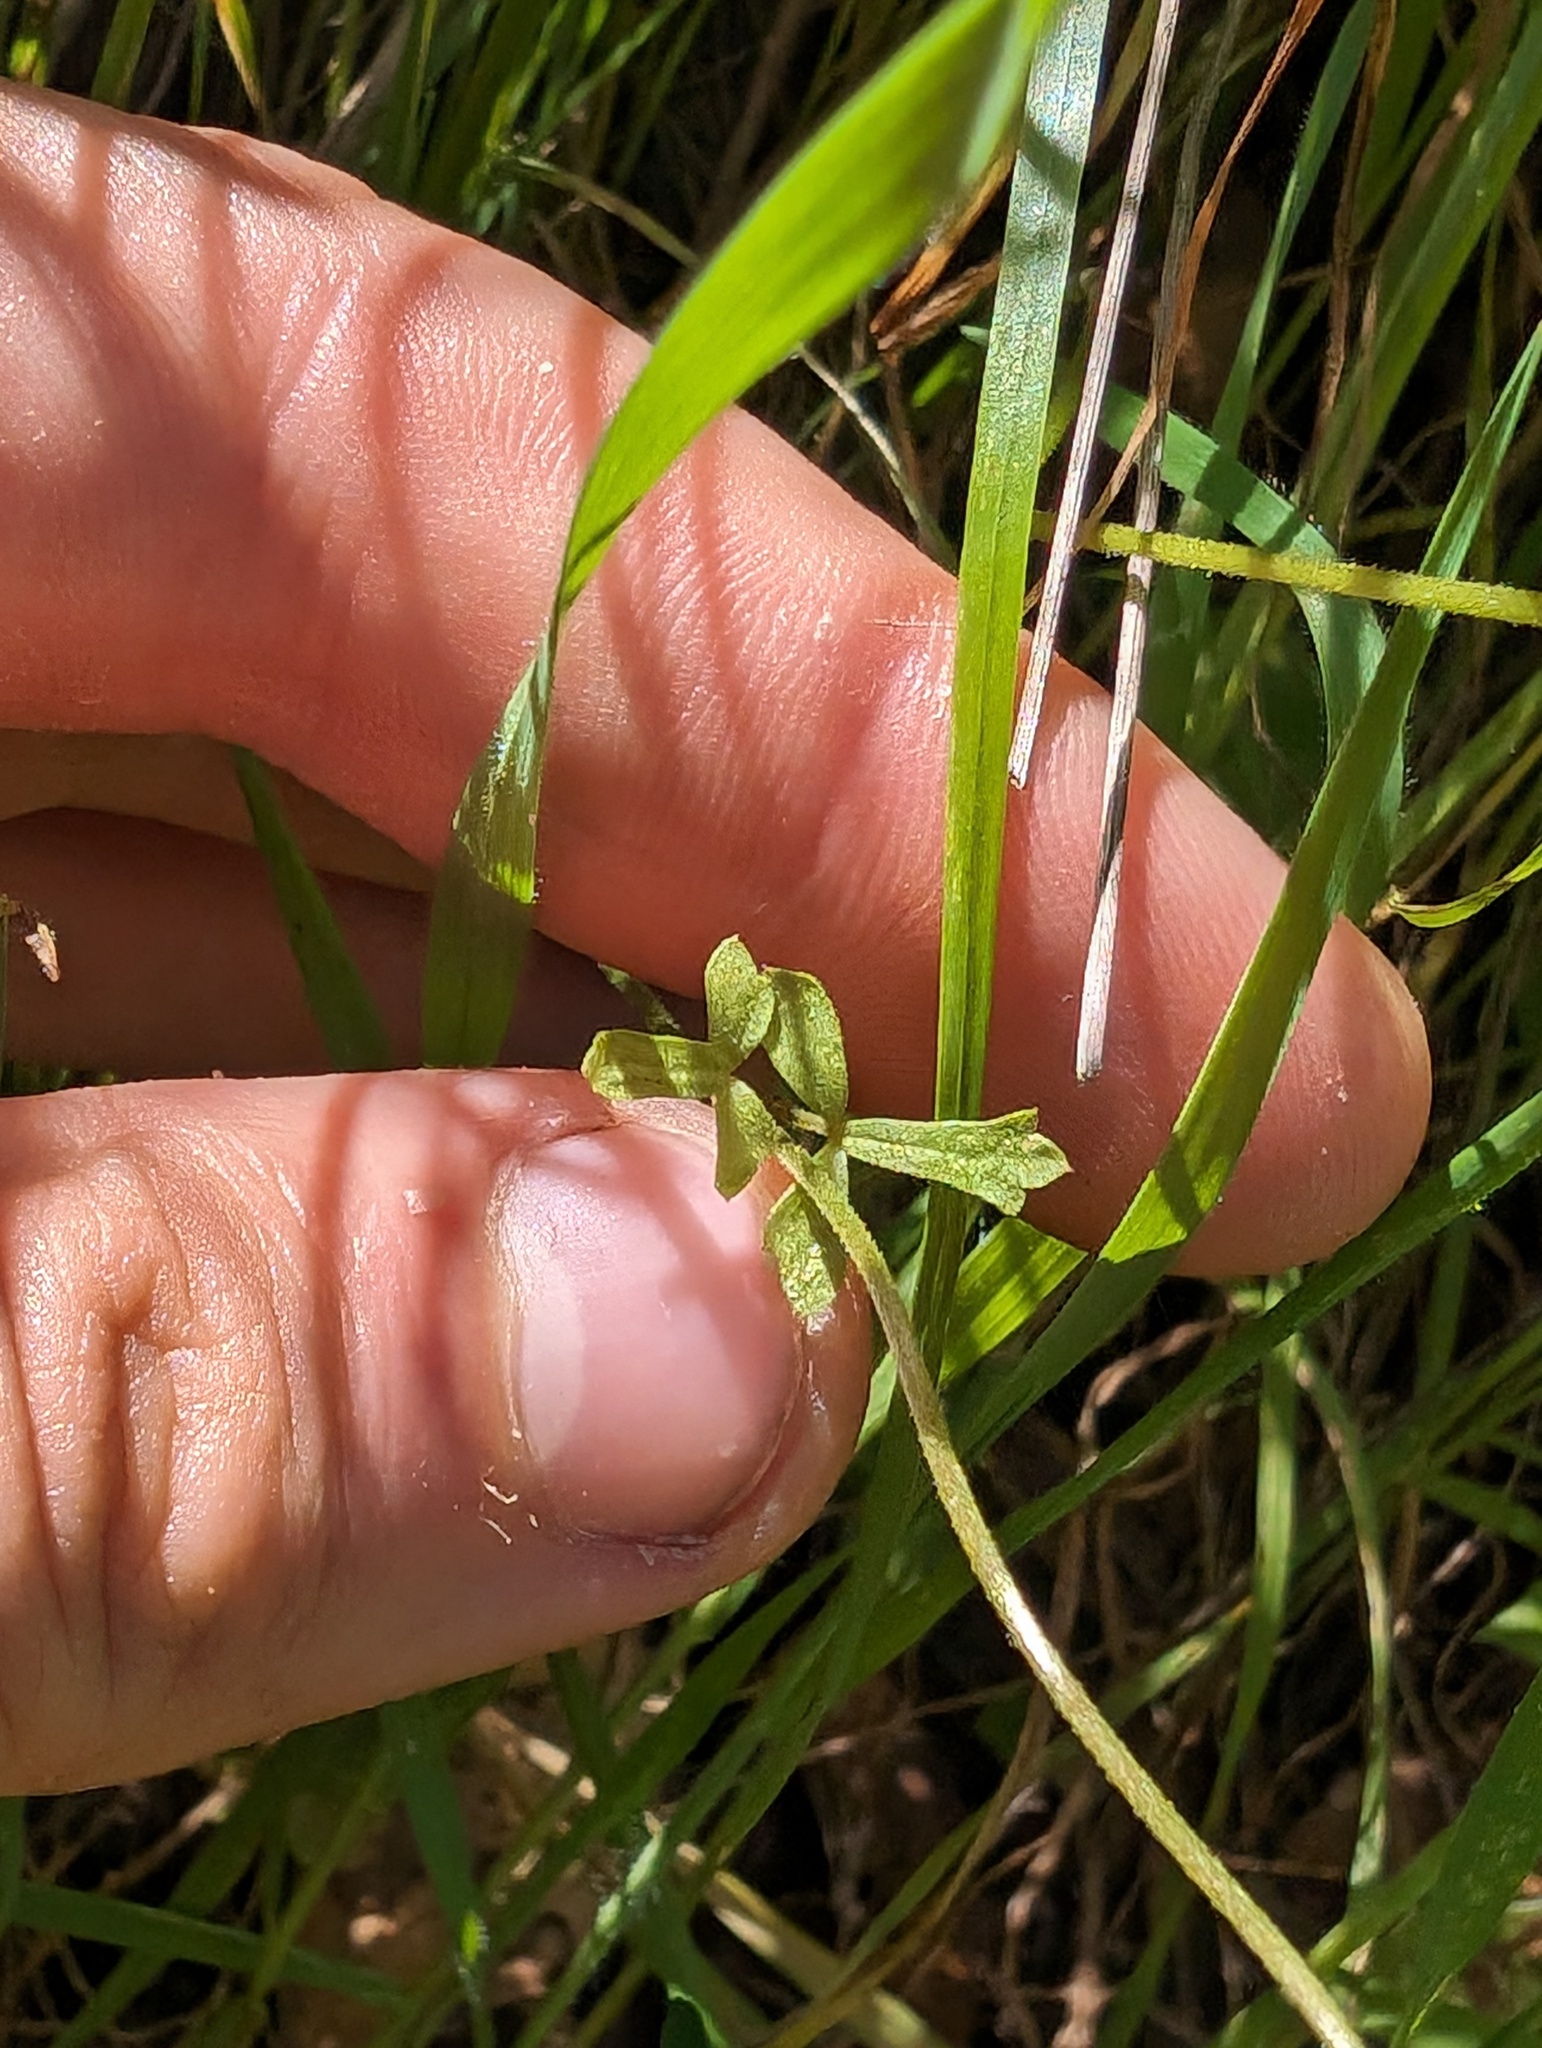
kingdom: Plantae
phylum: Tracheophyta
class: Magnoliopsida
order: Saxifragales
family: Saxifragaceae
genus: Lithophragma
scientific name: Lithophragma cymbalaria
